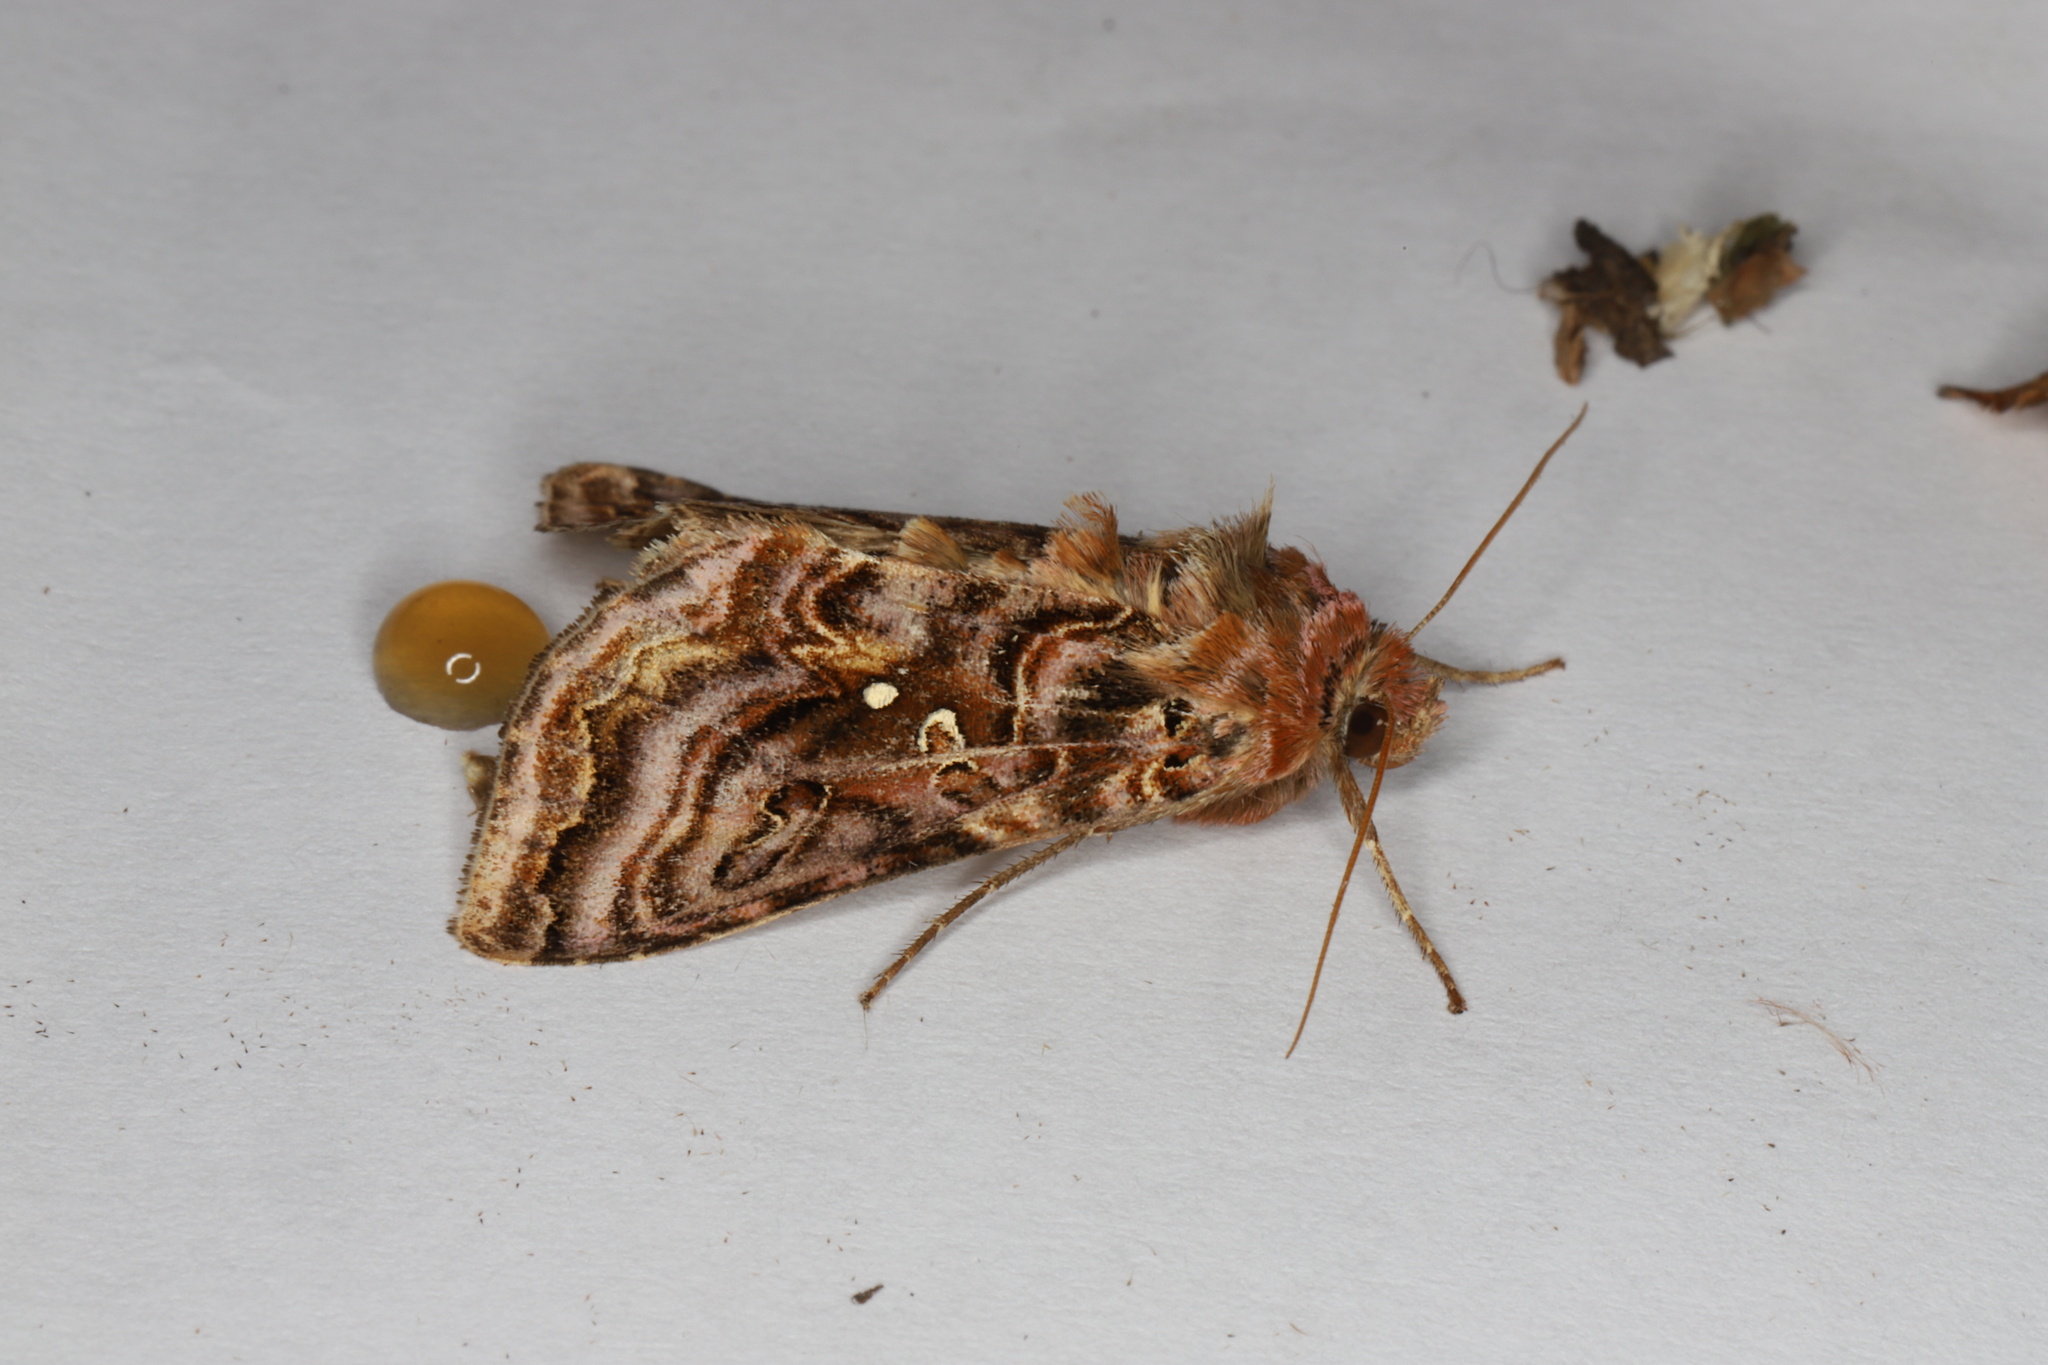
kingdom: Animalia
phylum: Arthropoda
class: Insecta
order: Lepidoptera
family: Noctuidae
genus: Autographa
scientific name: Autographa mappa
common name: Wavy chestnut y moth
